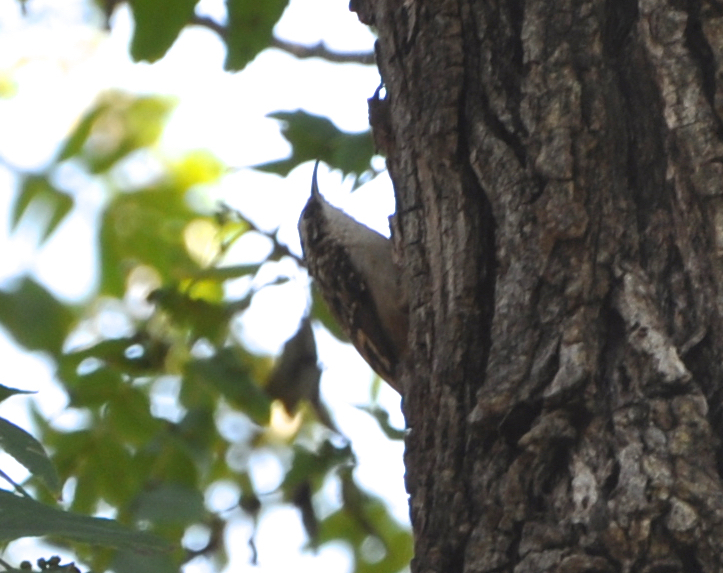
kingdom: Animalia
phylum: Chordata
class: Aves
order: Passeriformes
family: Certhiidae
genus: Certhia
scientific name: Certhia americana
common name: Brown creeper
